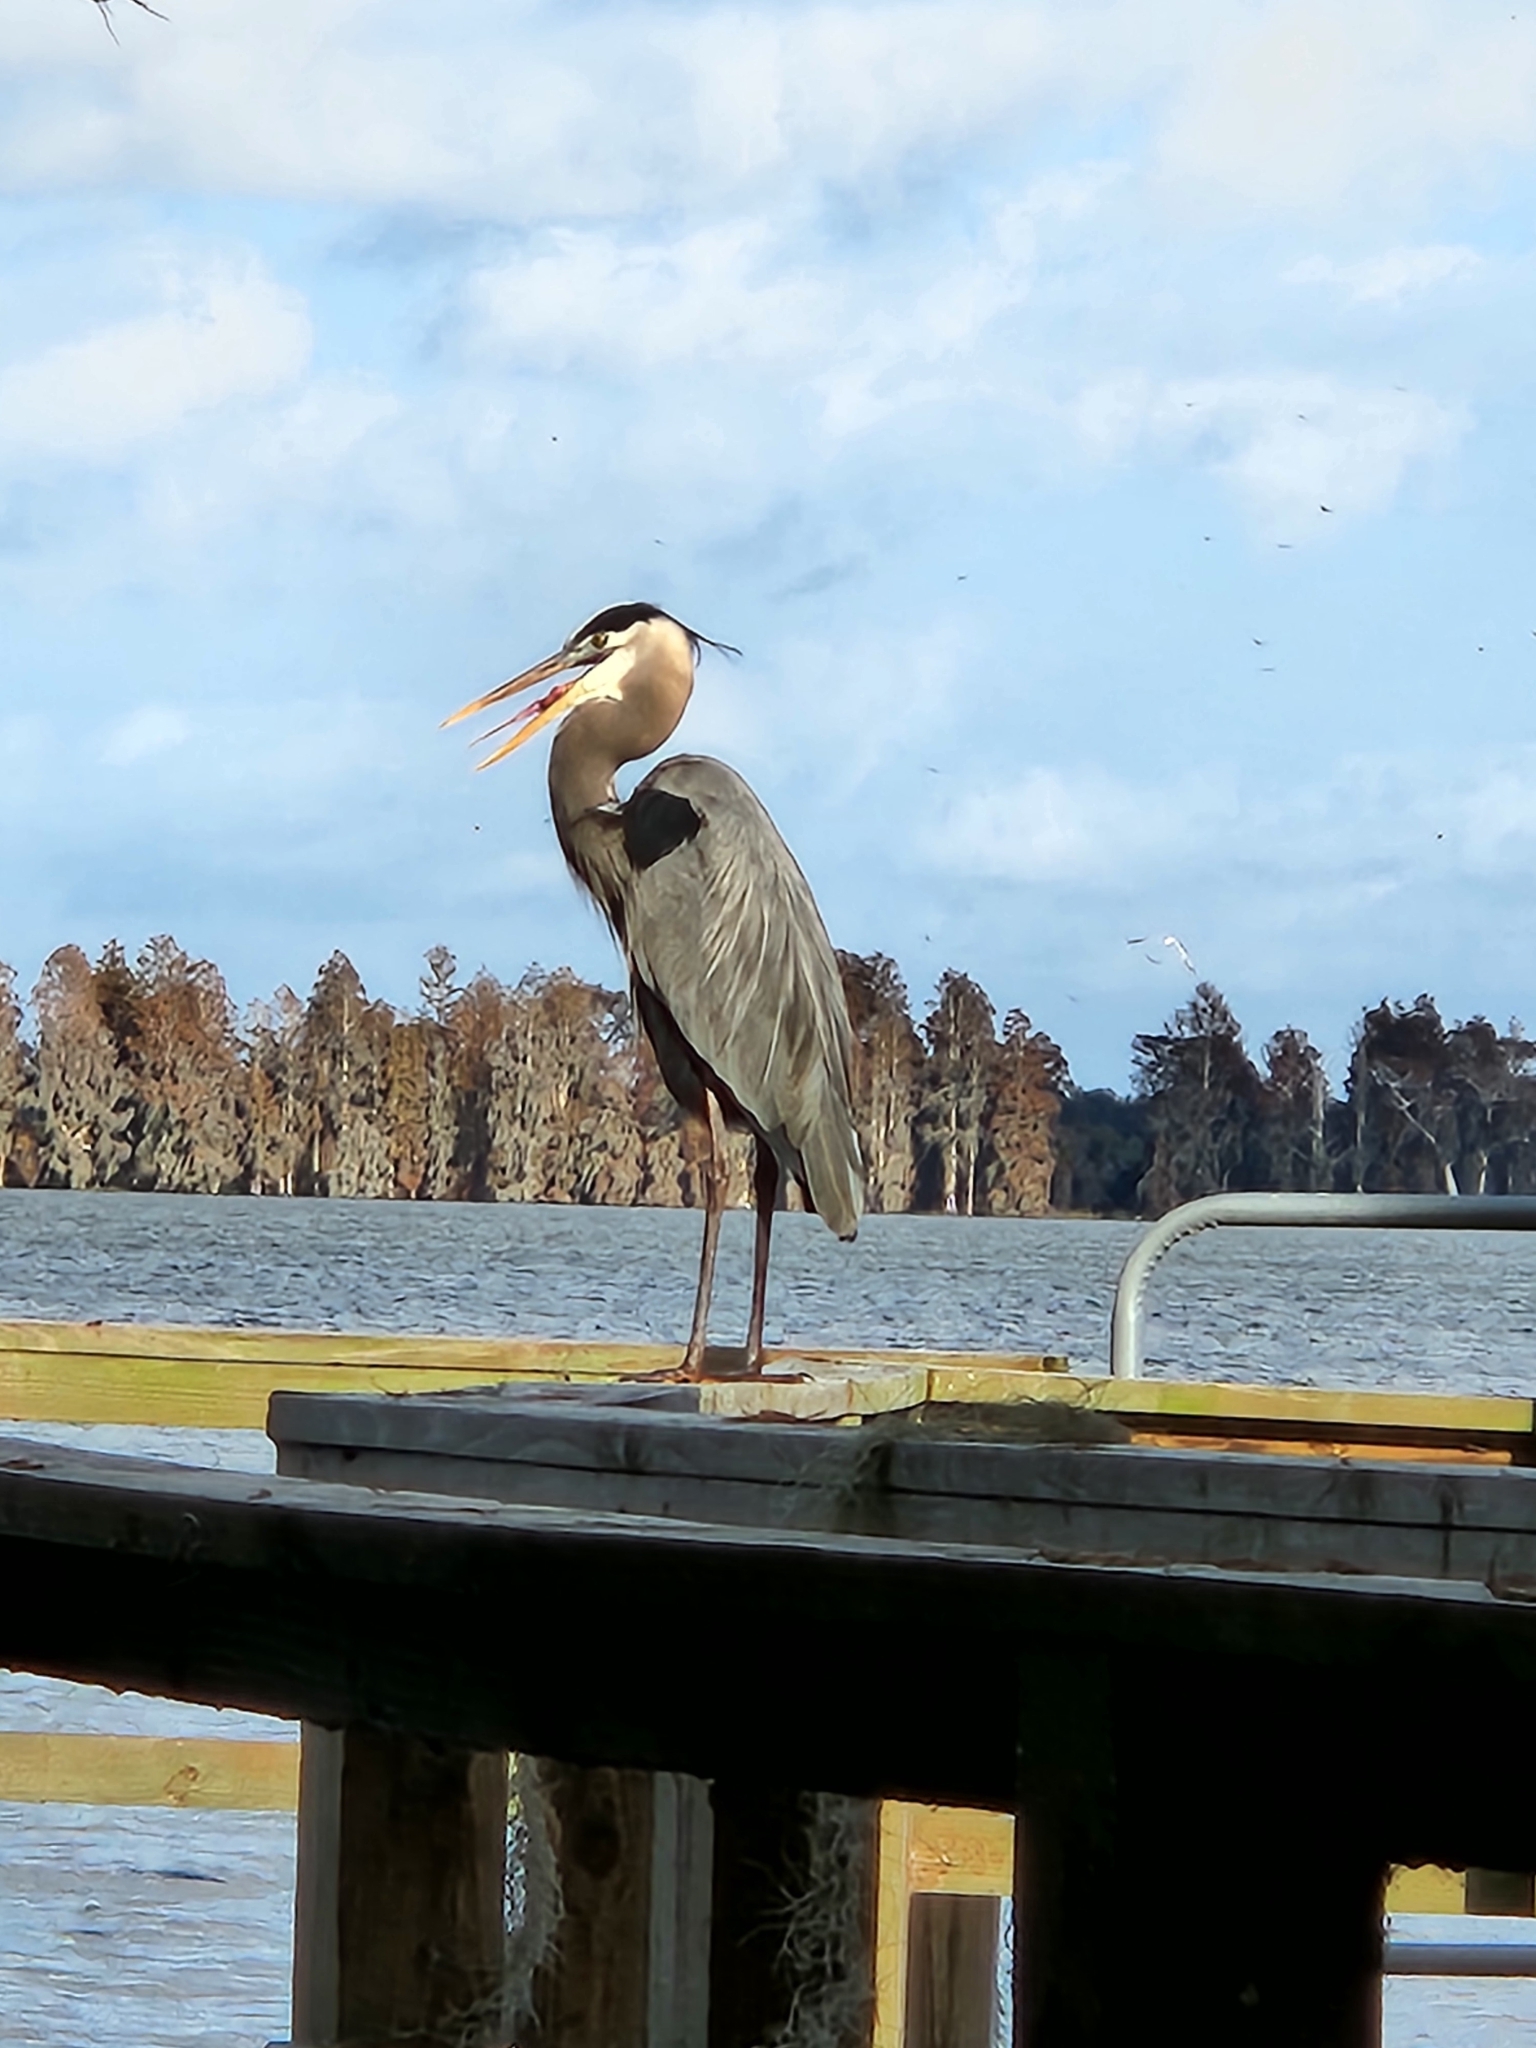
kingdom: Animalia
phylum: Chordata
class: Aves
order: Pelecaniformes
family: Ardeidae
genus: Ardea
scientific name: Ardea herodias
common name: Great blue heron
